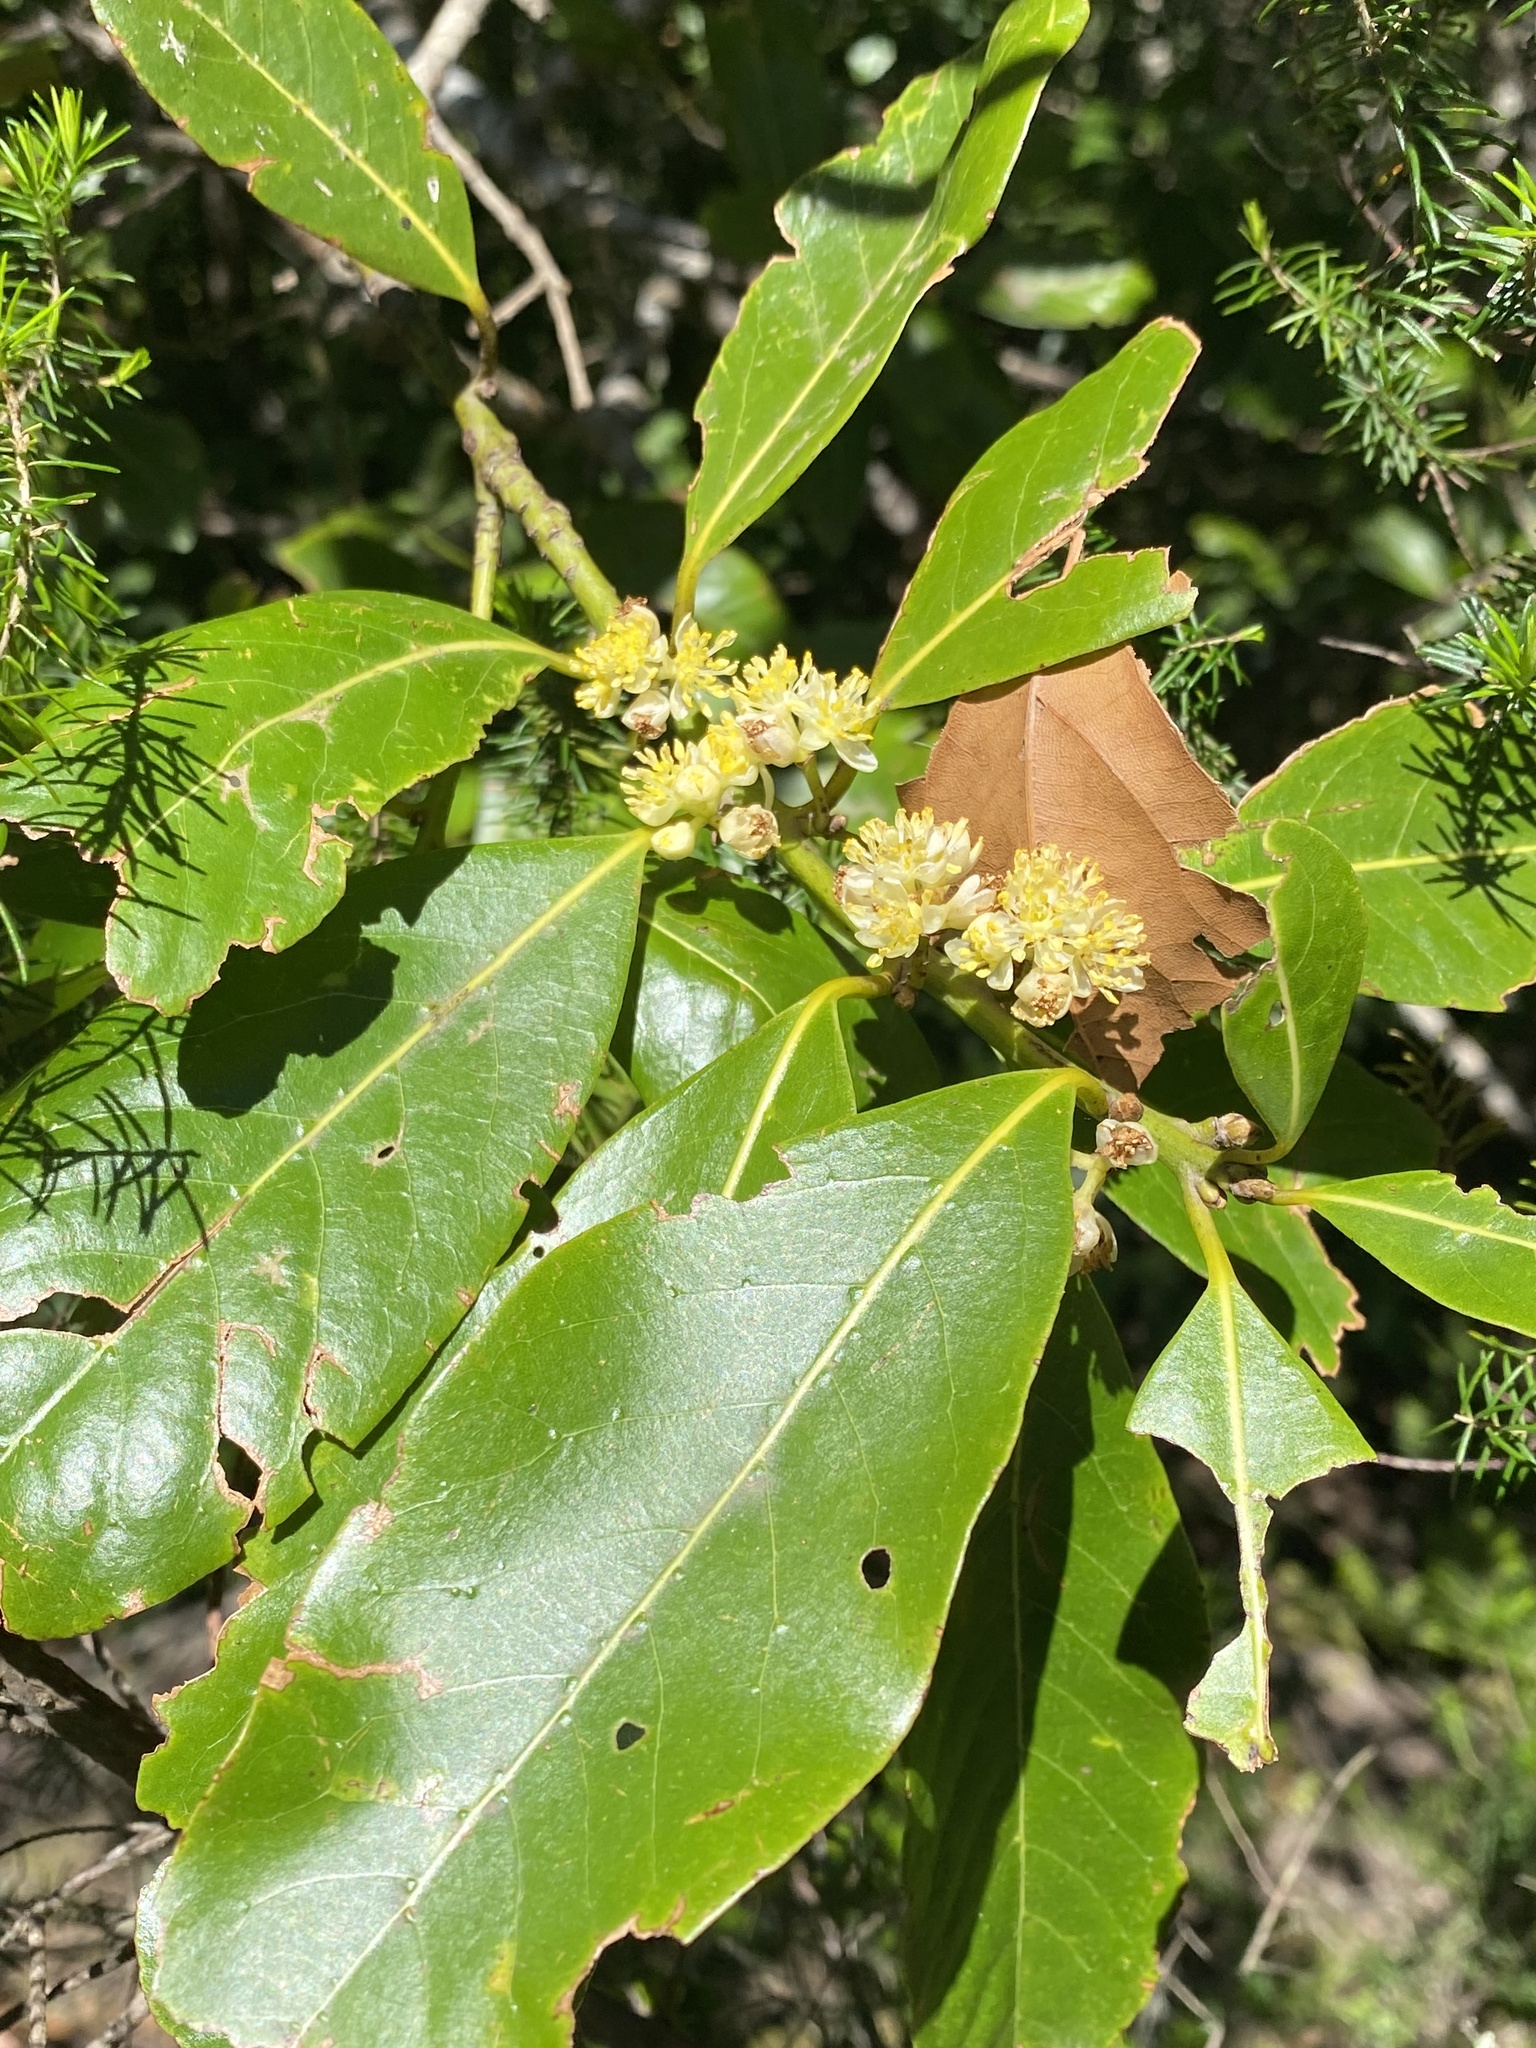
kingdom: Plantae
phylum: Tracheophyta
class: Magnoliopsida
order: Laurales
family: Lauraceae
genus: Laurus
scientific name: Laurus novocanariensis
